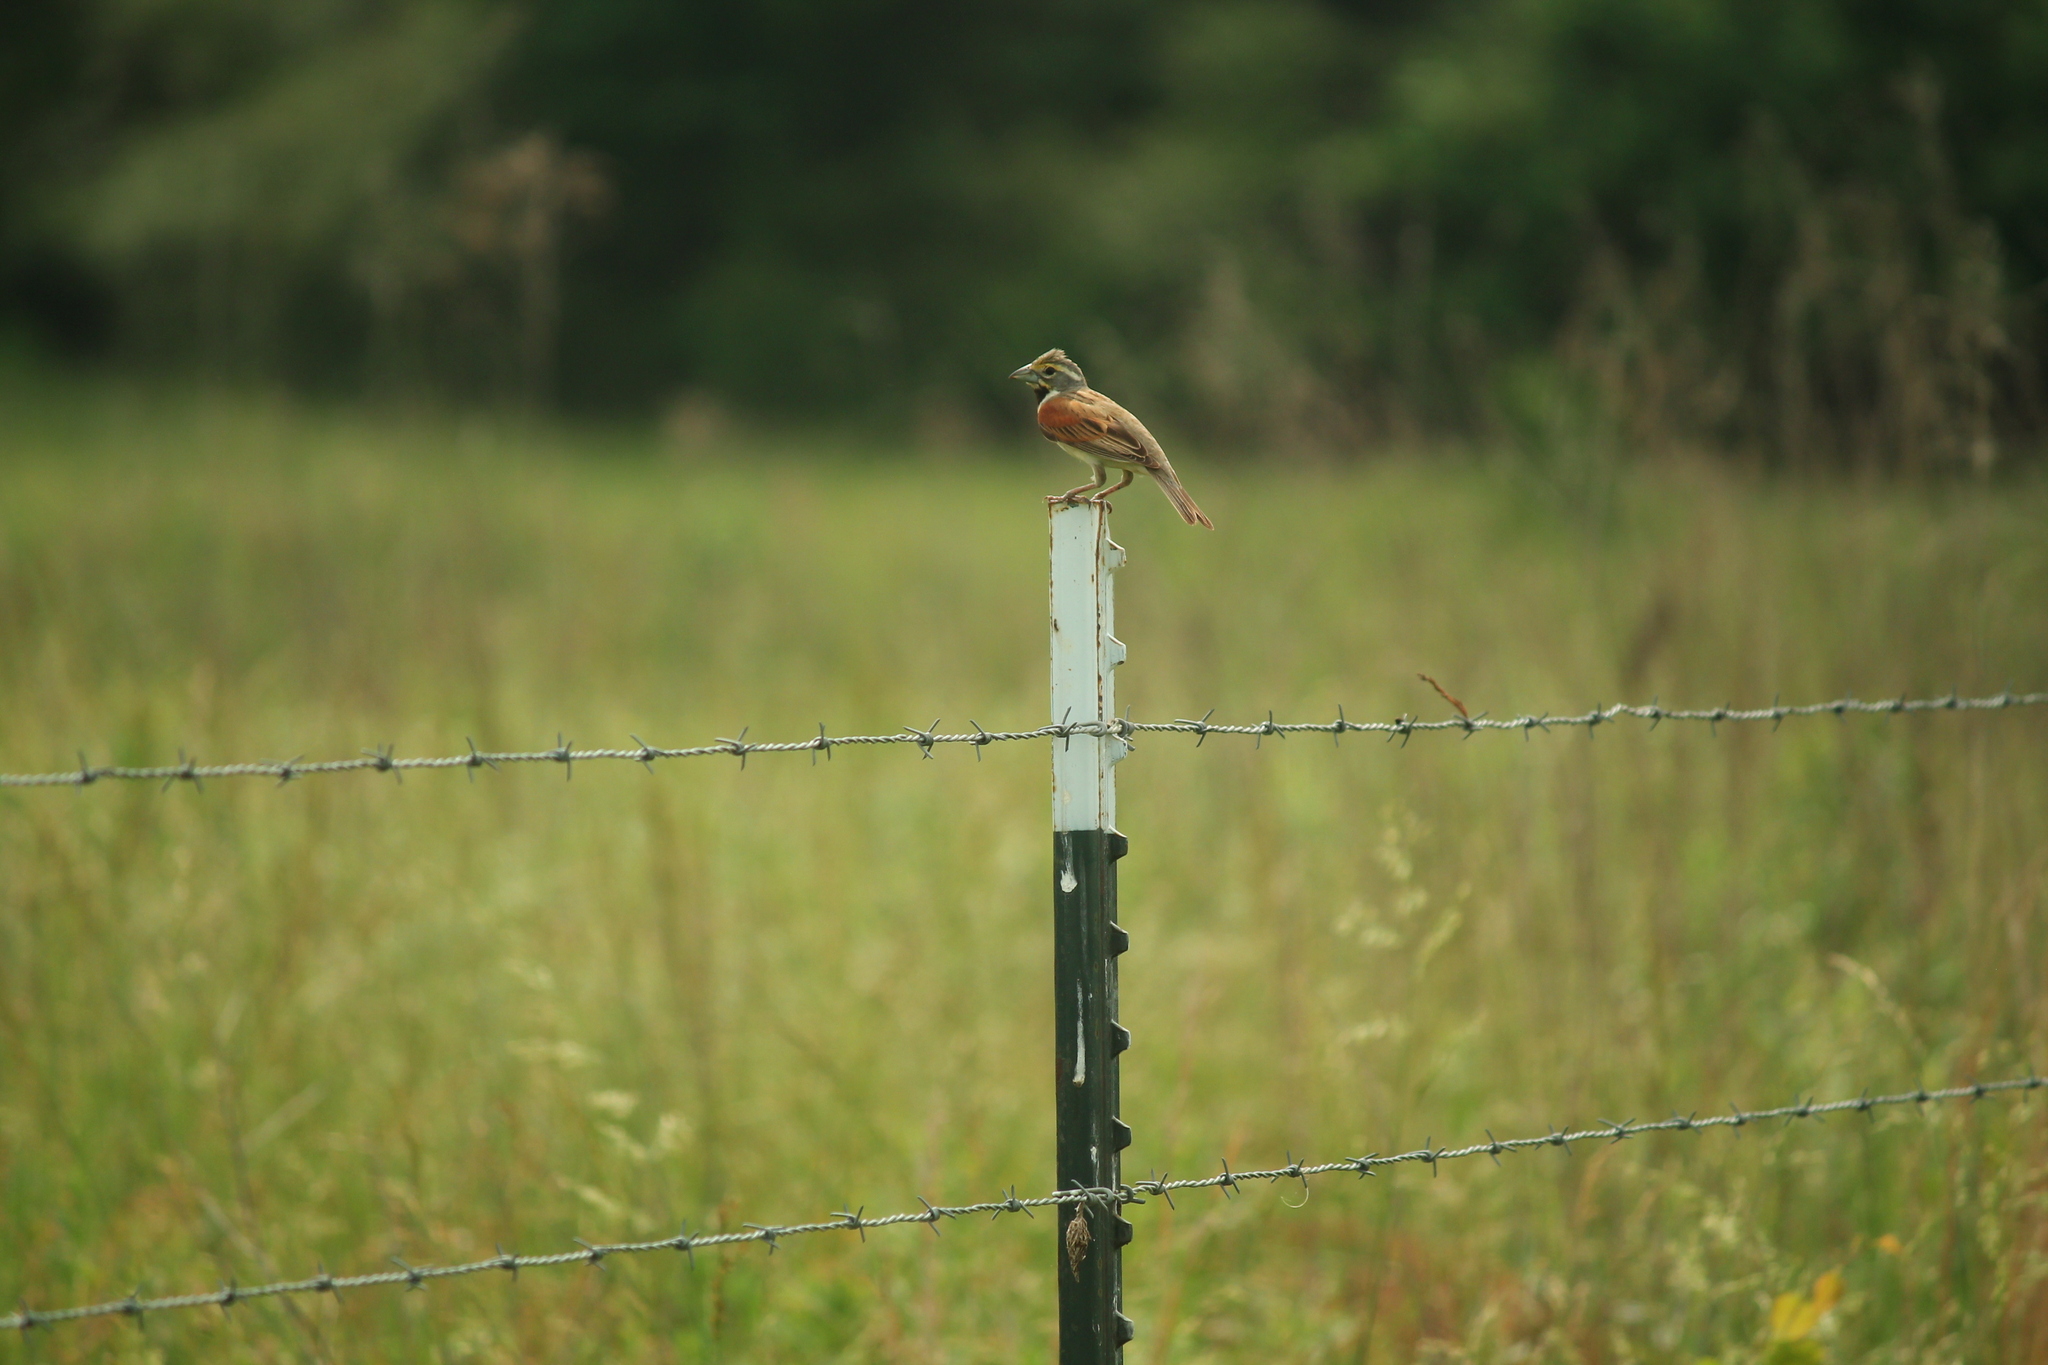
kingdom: Animalia
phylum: Chordata
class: Aves
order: Passeriformes
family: Cardinalidae
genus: Spiza
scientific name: Spiza americana
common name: Dickcissel
